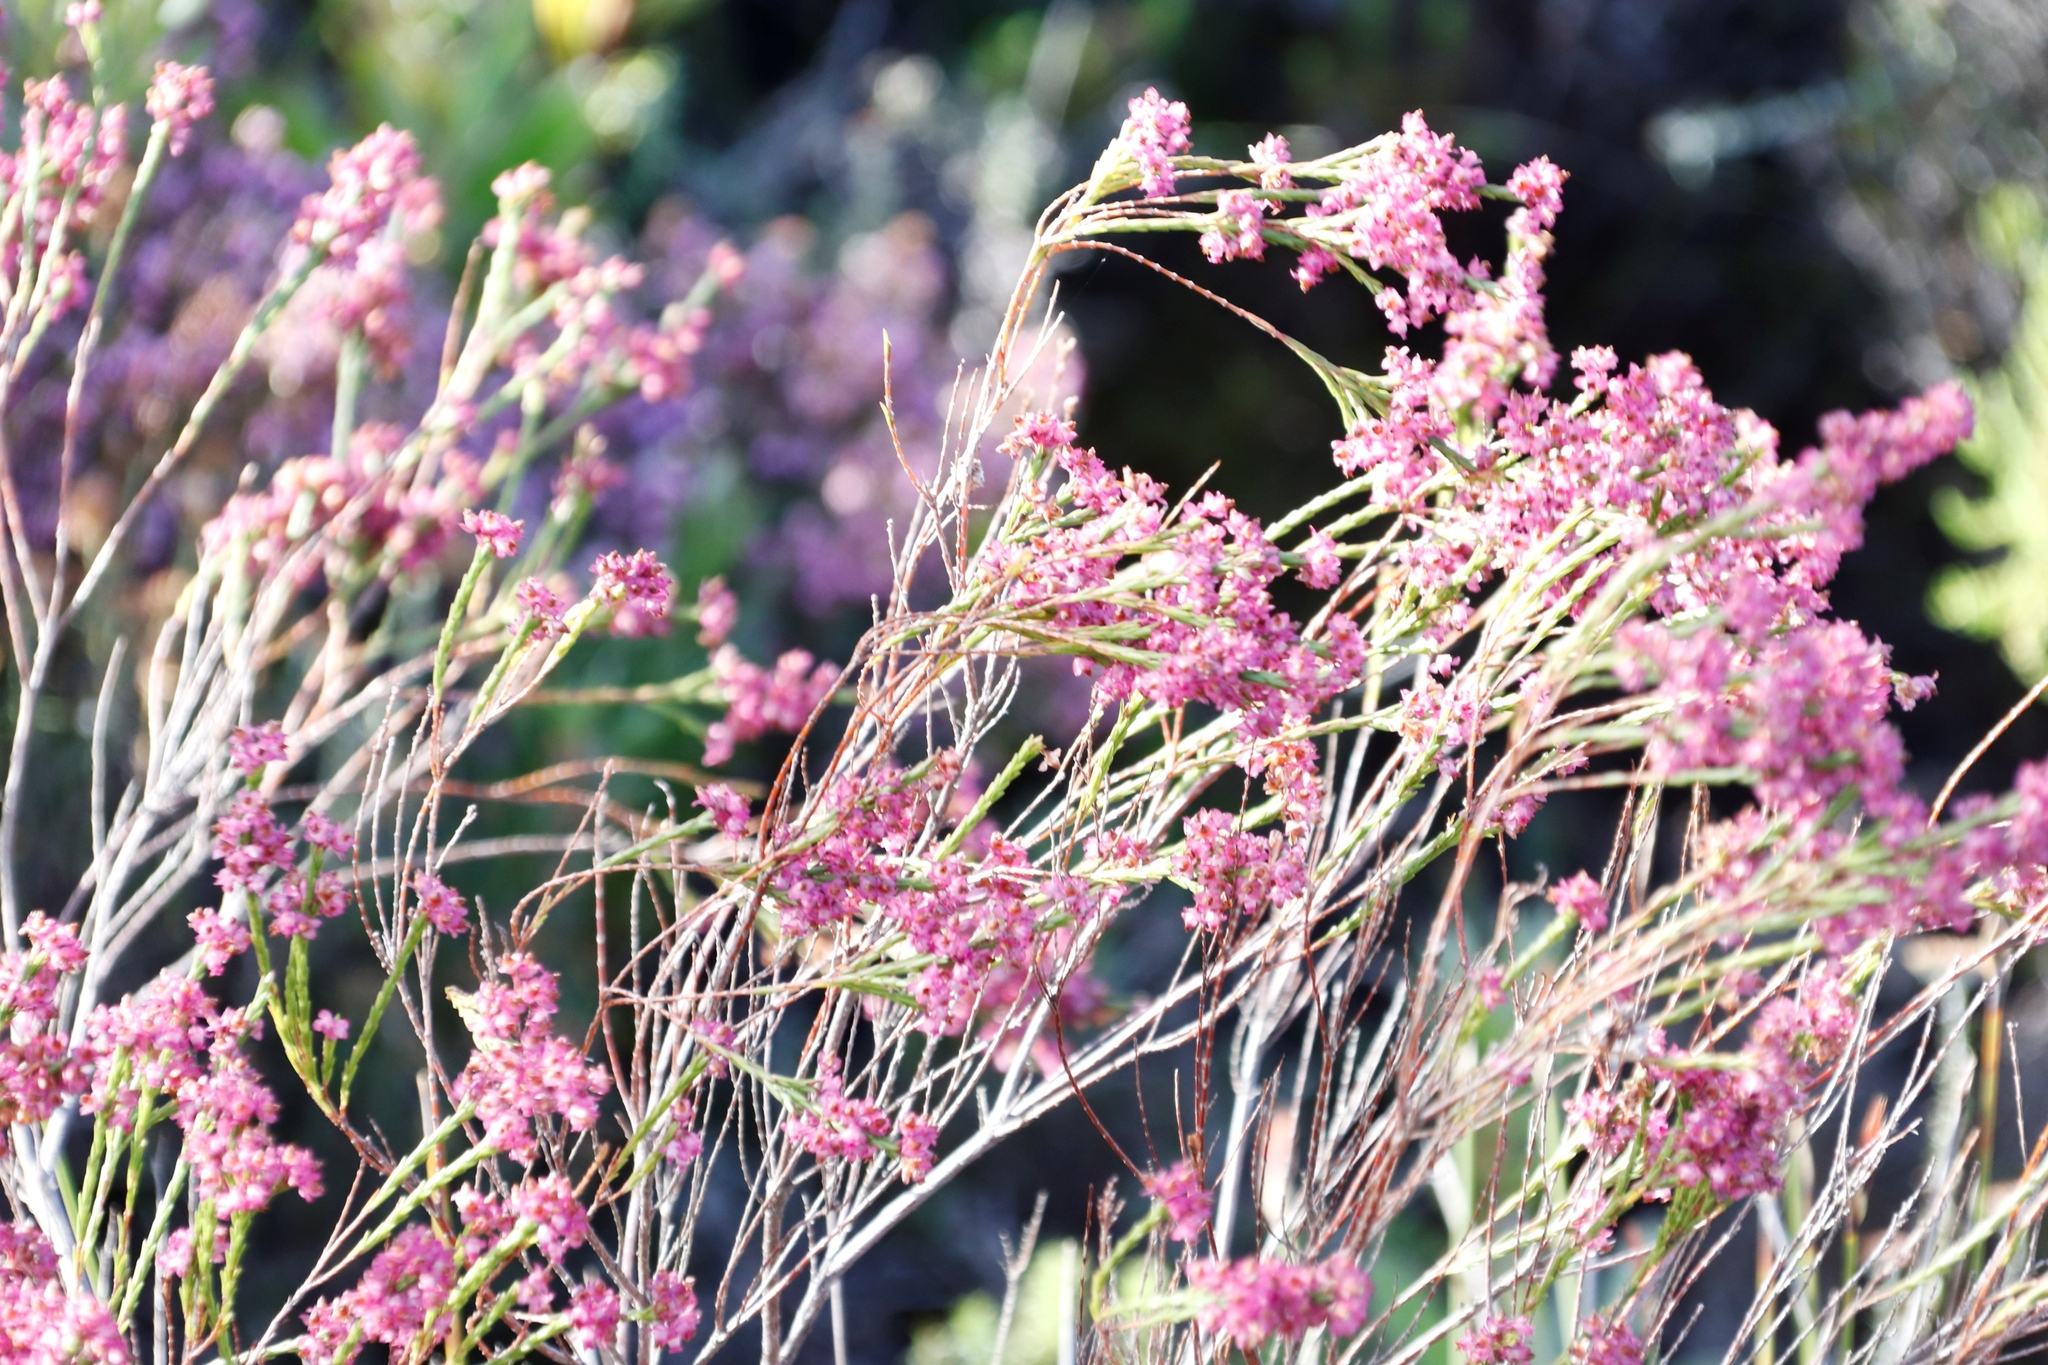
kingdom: Plantae
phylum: Tracheophyta
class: Magnoliopsida
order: Ericales
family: Ericaceae
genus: Erica
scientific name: Erica corifolia
